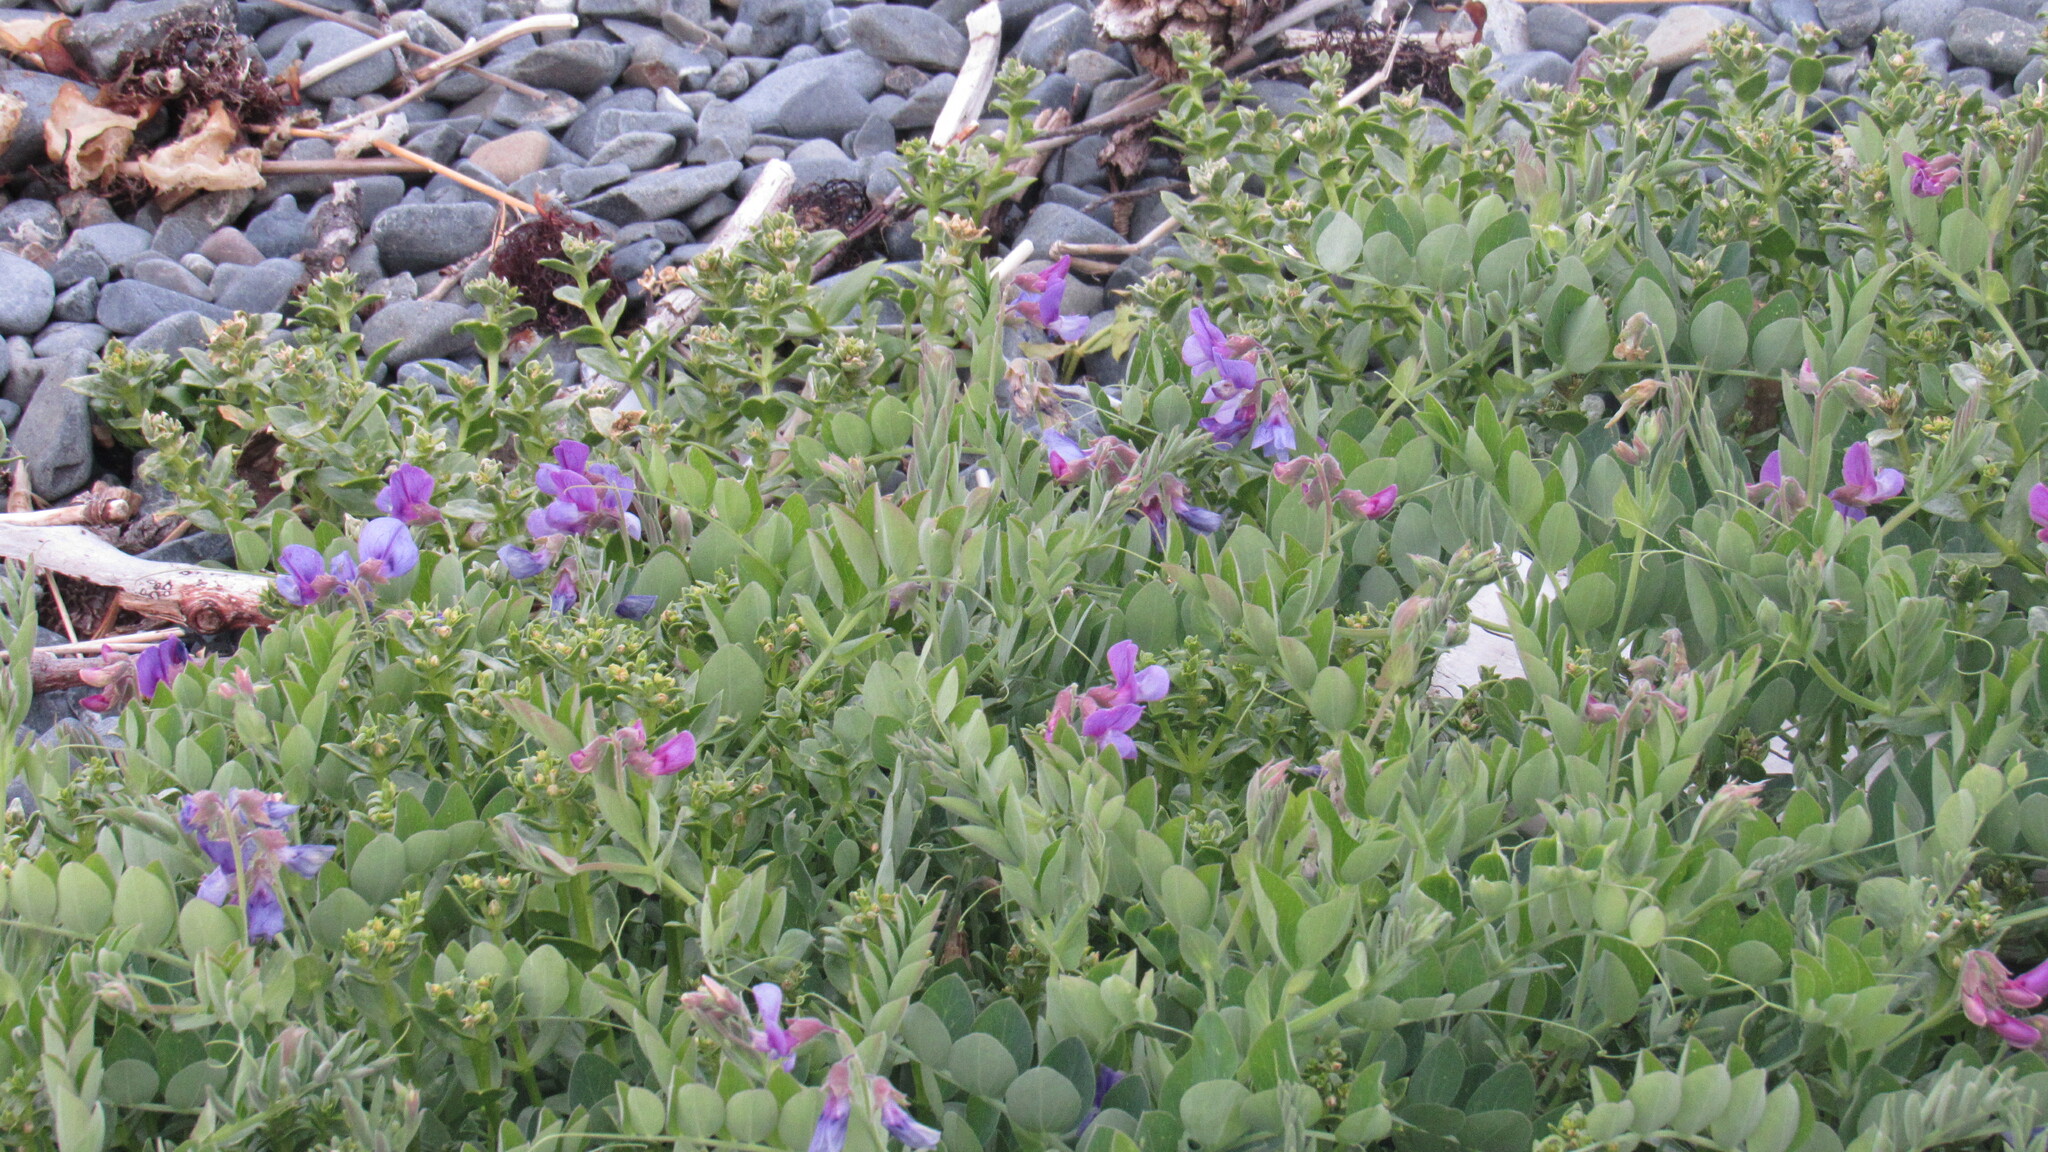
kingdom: Plantae
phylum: Tracheophyta
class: Magnoliopsida
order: Fabales
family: Fabaceae
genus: Lathyrus
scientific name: Lathyrus japonicus
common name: Sea pea
